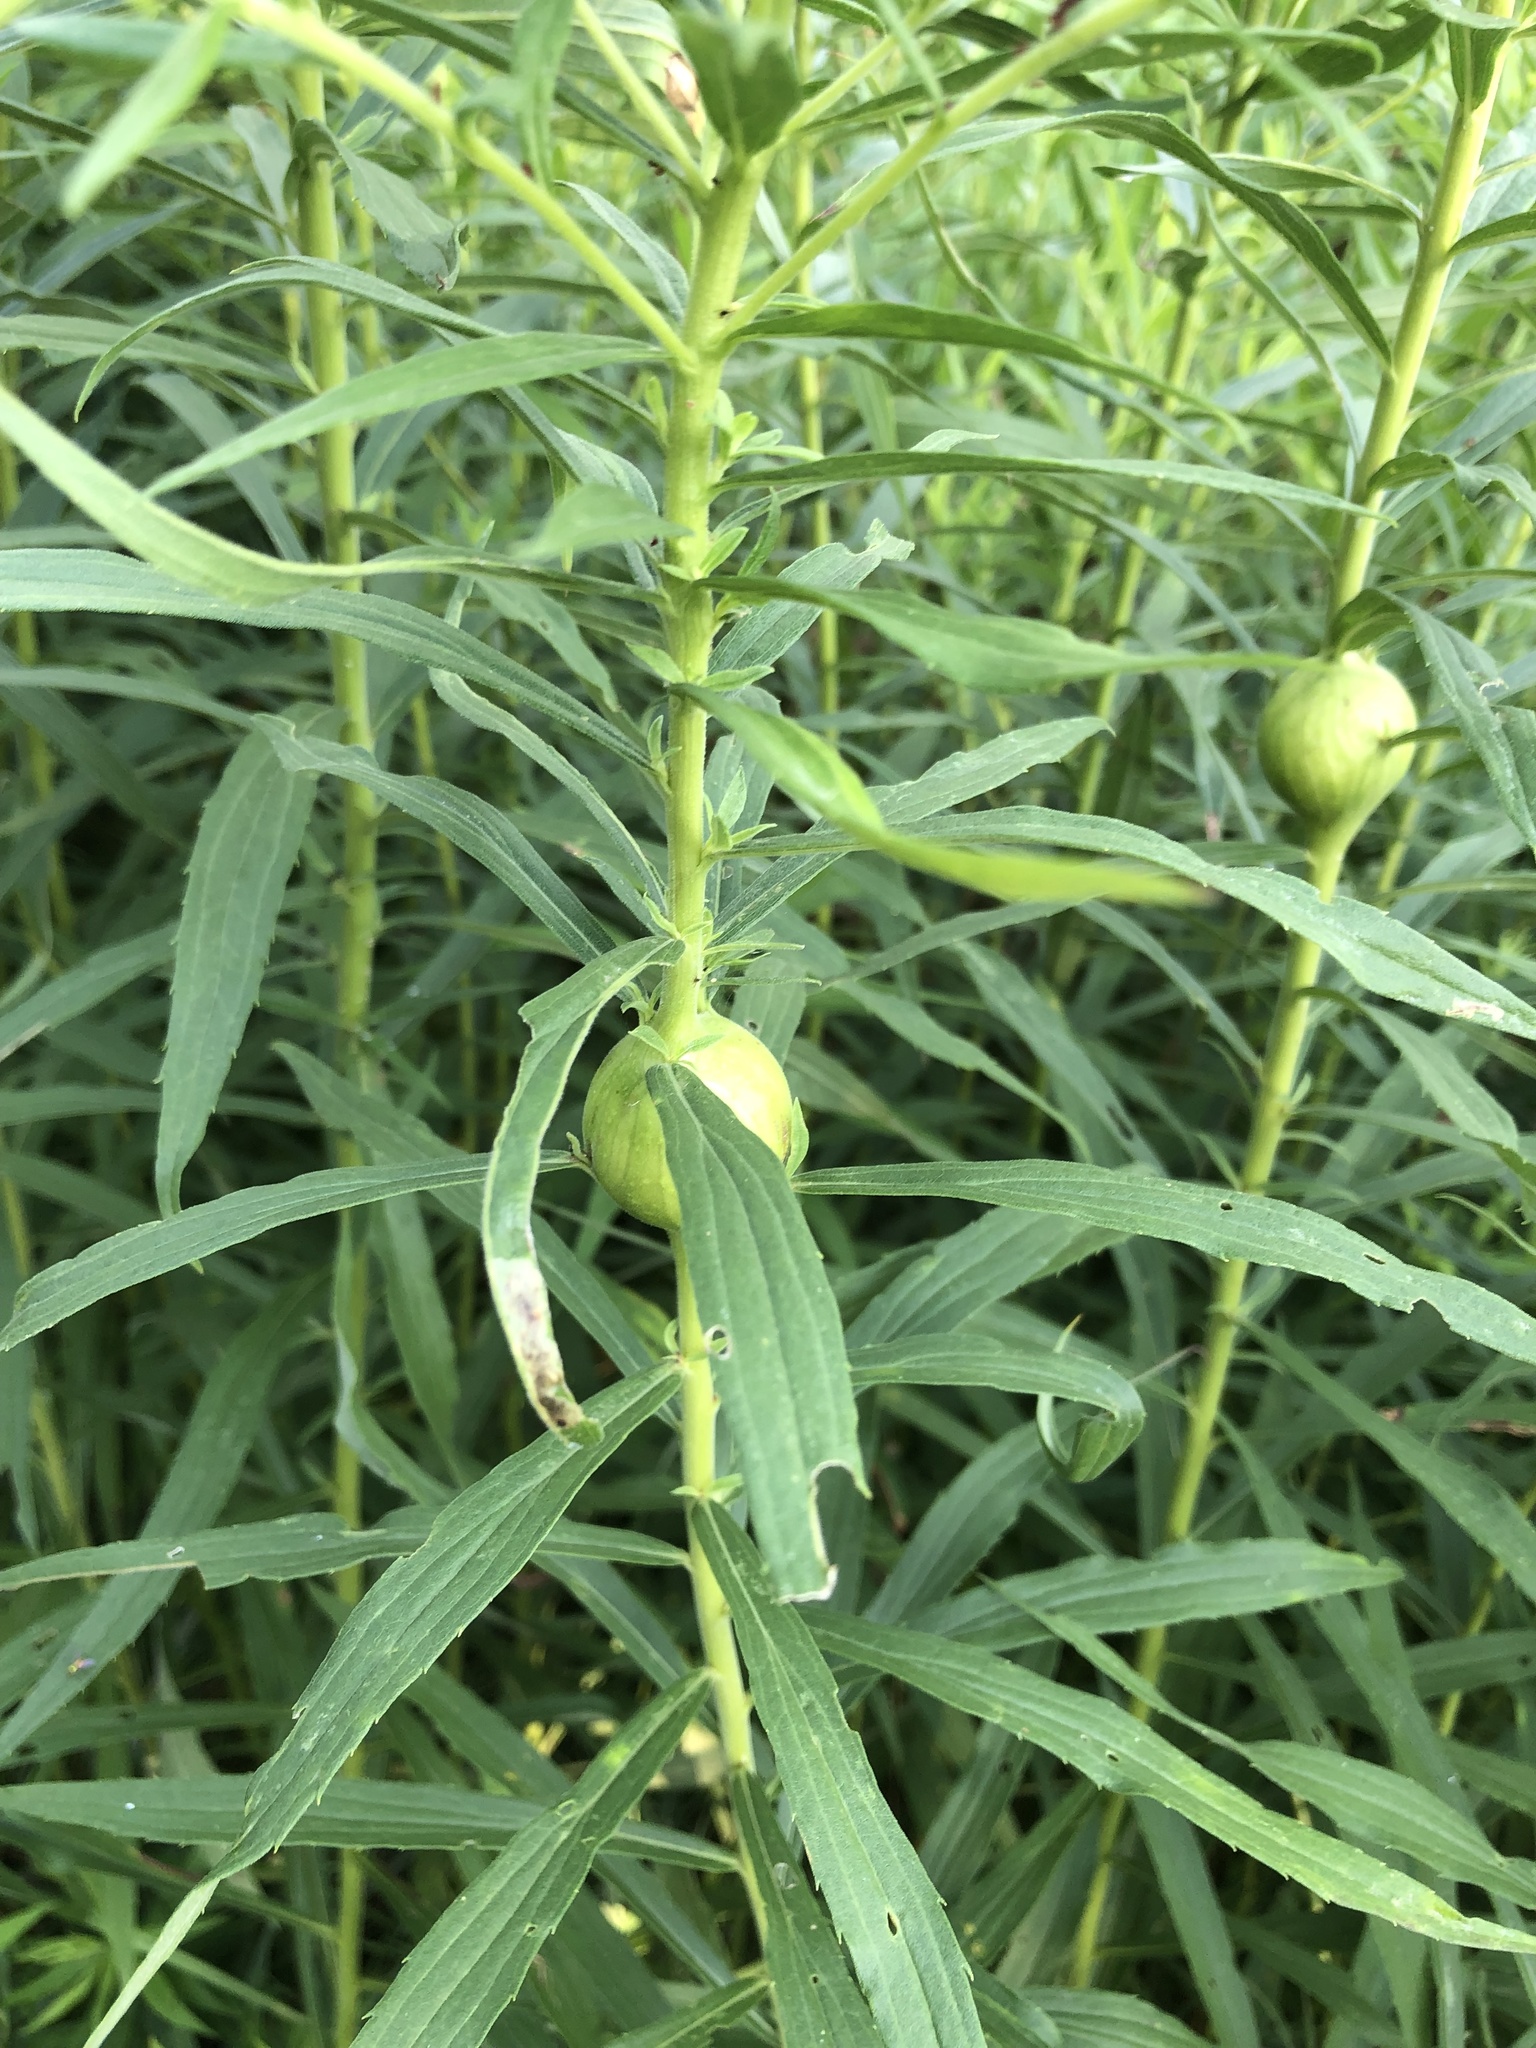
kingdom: Animalia
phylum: Arthropoda
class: Insecta
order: Diptera
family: Tephritidae
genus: Eurosta
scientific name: Eurosta solidaginis
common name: Goldenrod gall fly
